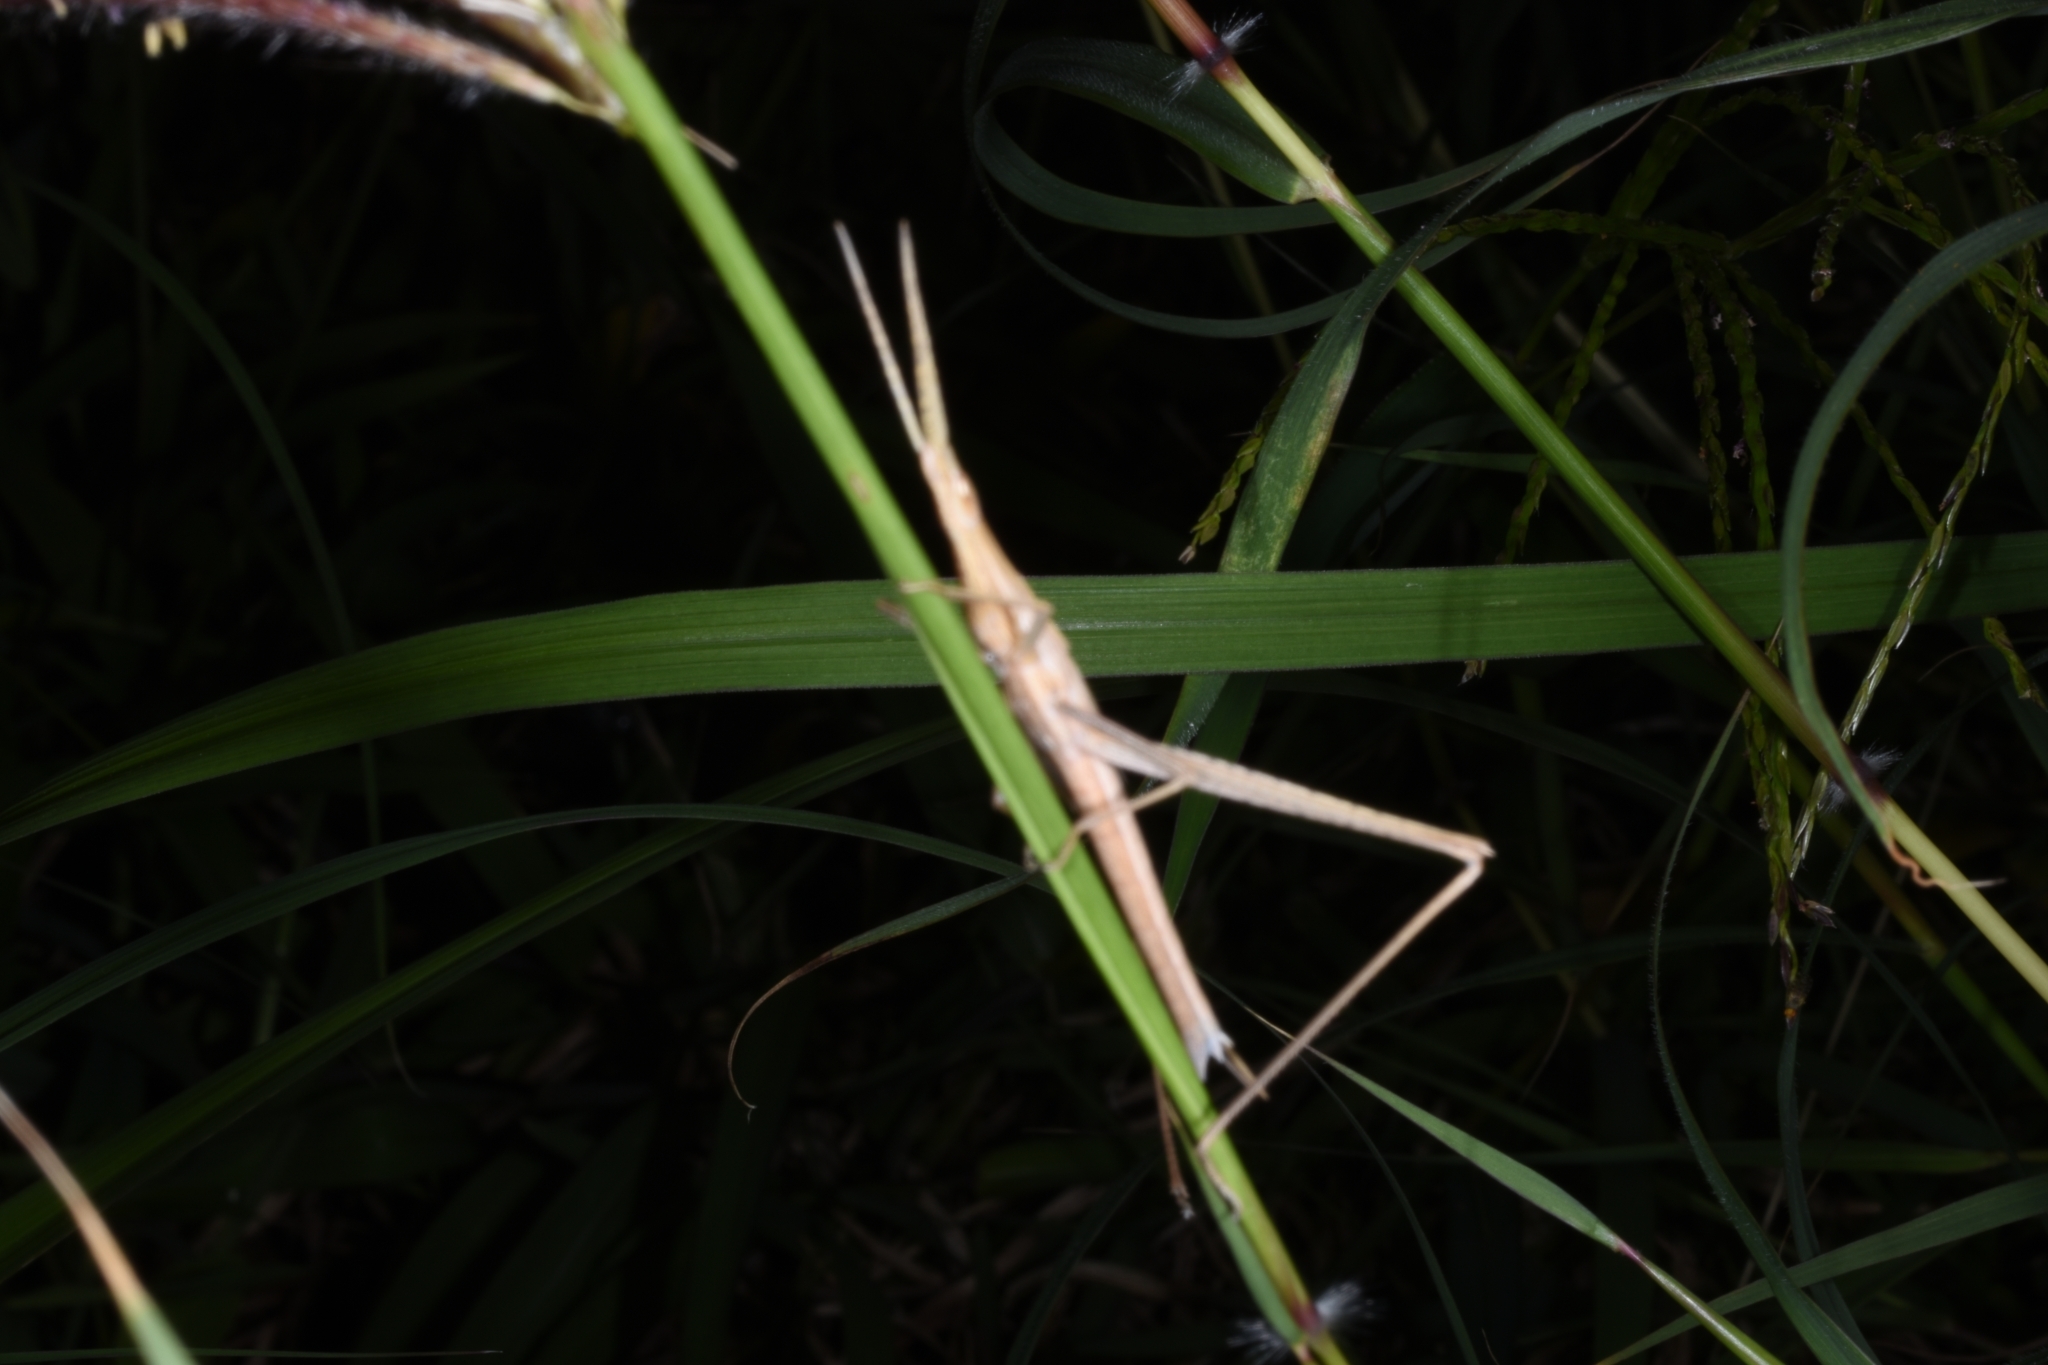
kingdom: Animalia
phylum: Arthropoda
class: Insecta
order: Orthoptera
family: Acrididae
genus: Acrida
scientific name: Acrida cinerea
